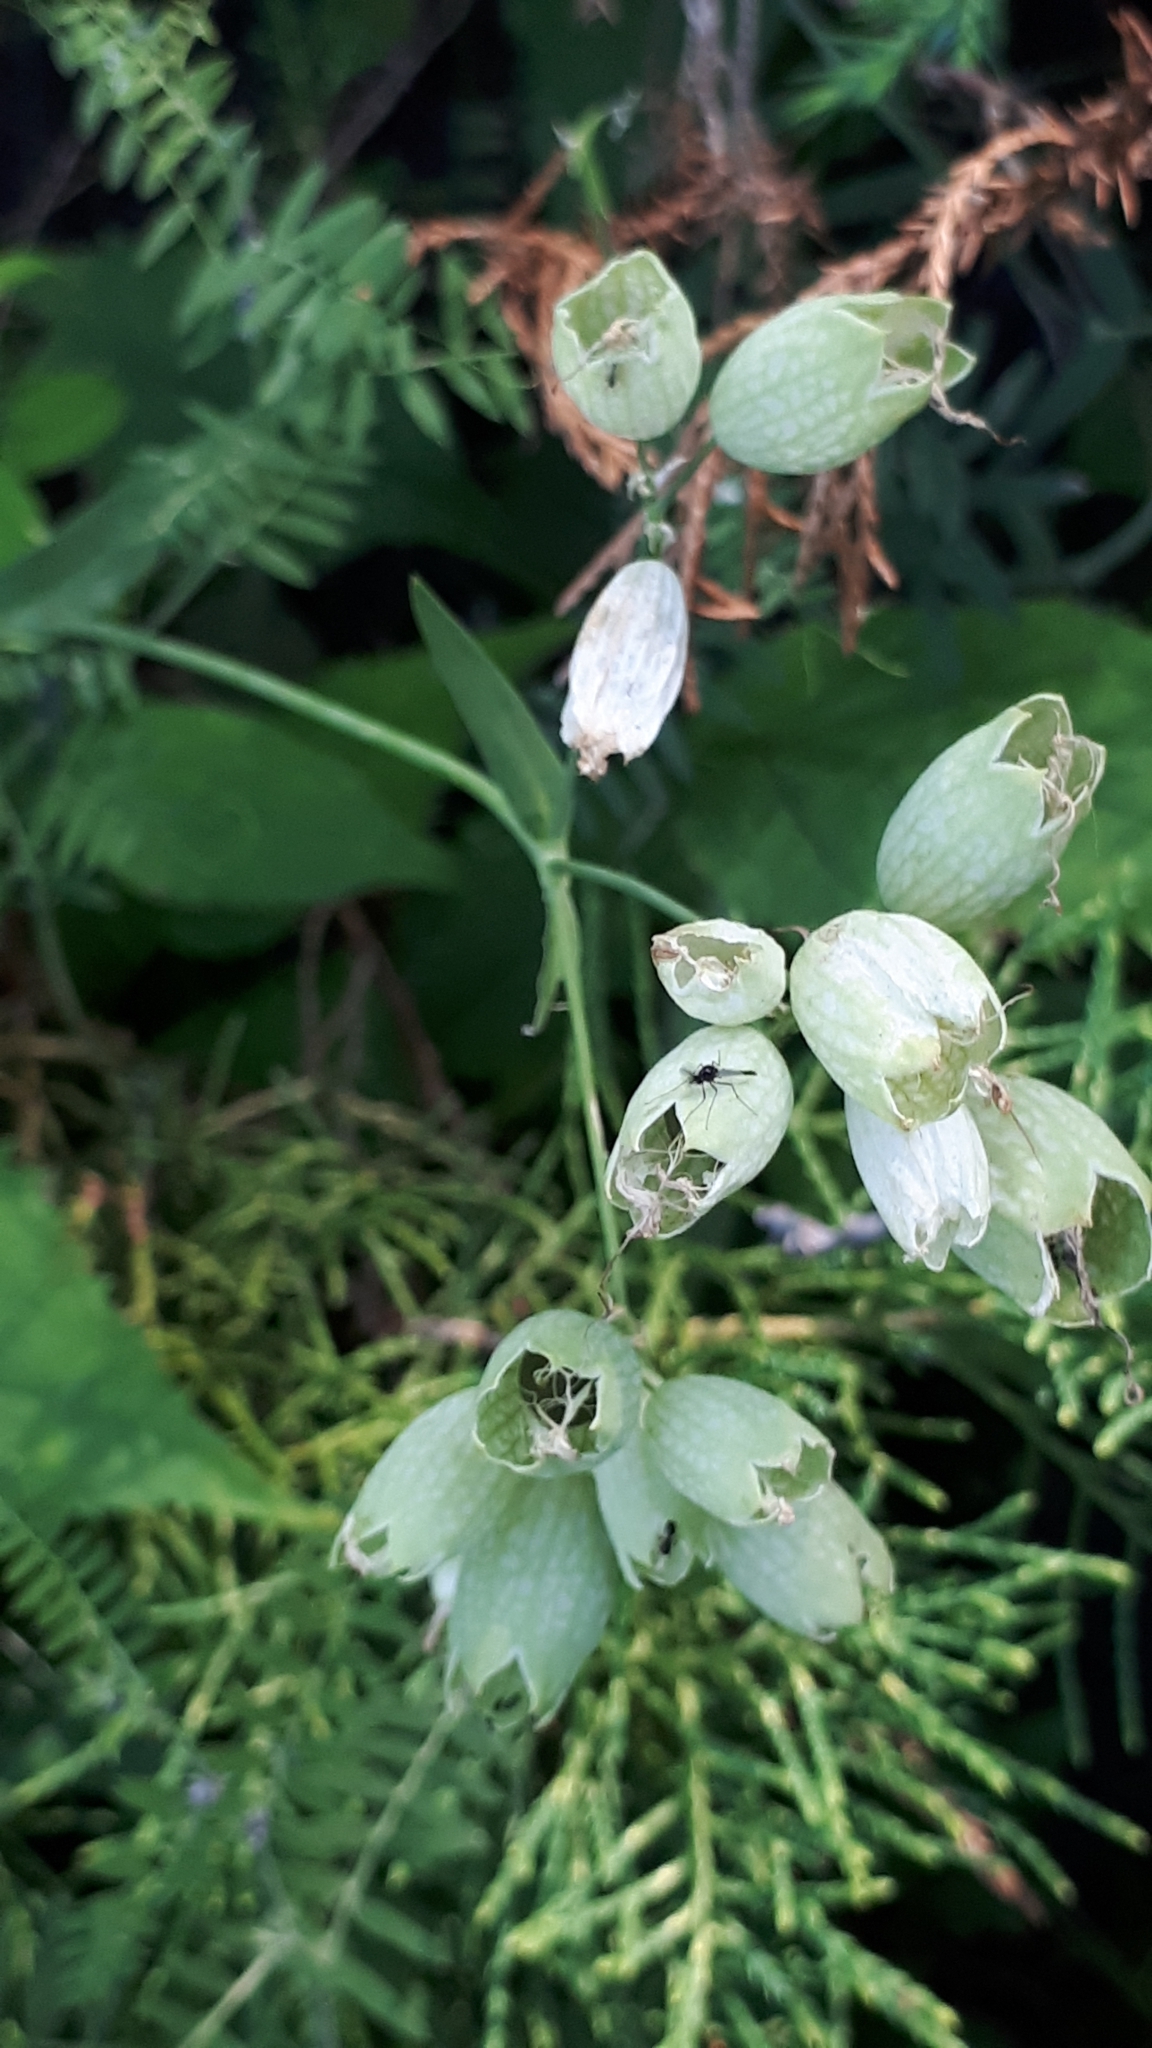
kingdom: Plantae
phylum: Tracheophyta
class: Magnoliopsida
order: Caryophyllales
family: Caryophyllaceae
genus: Silene
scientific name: Silene vulgaris
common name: Bladder campion
